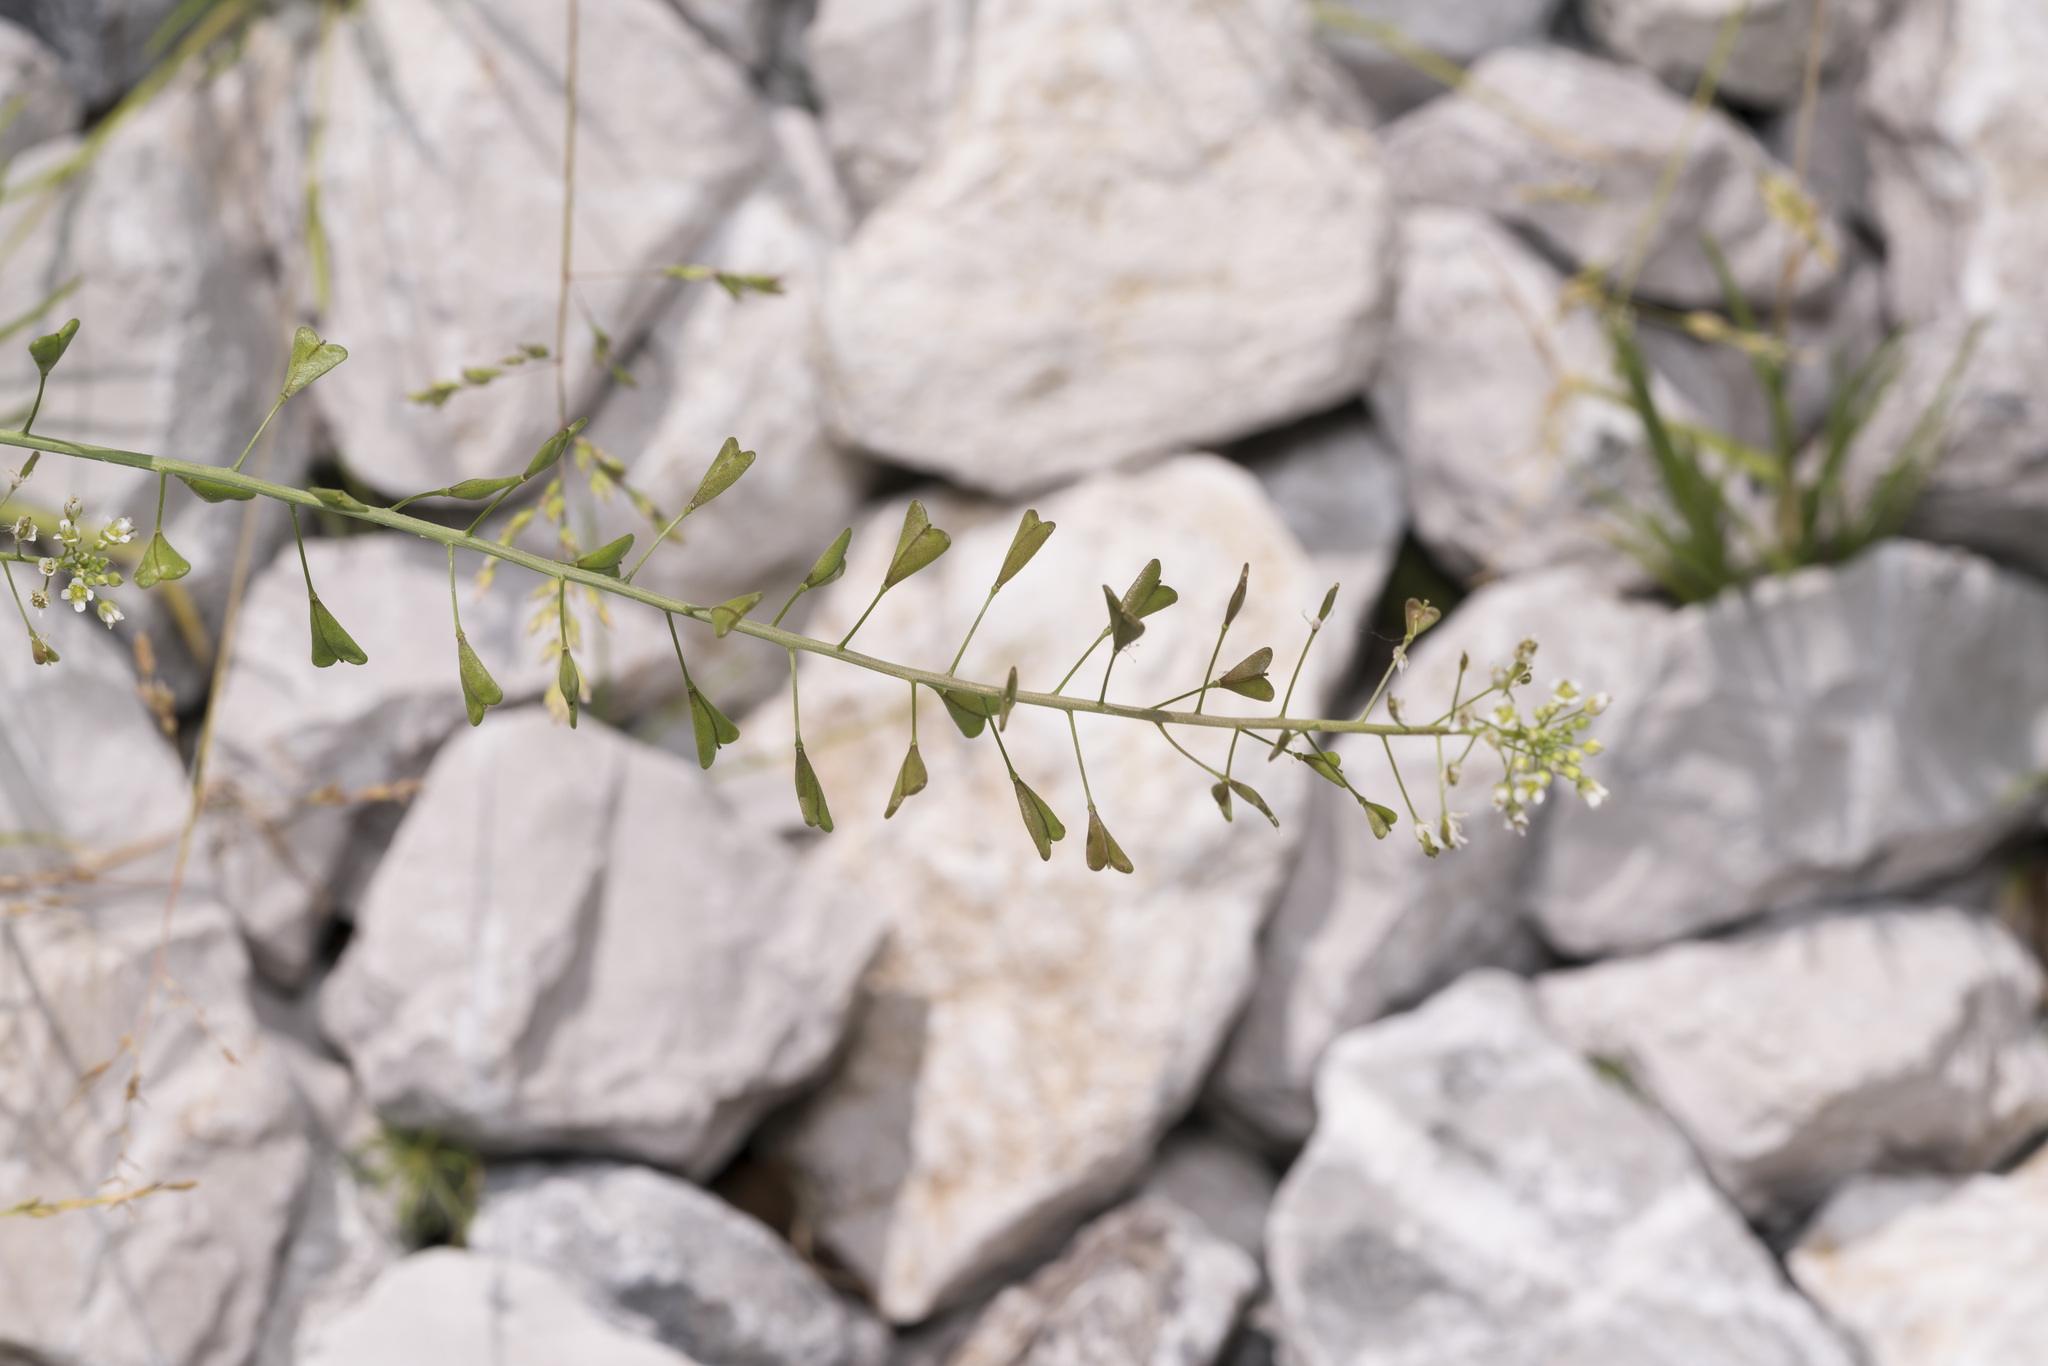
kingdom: Plantae
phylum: Tracheophyta
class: Magnoliopsida
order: Brassicales
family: Brassicaceae
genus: Capsella
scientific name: Capsella bursa-pastoris
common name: Shepherd's purse
